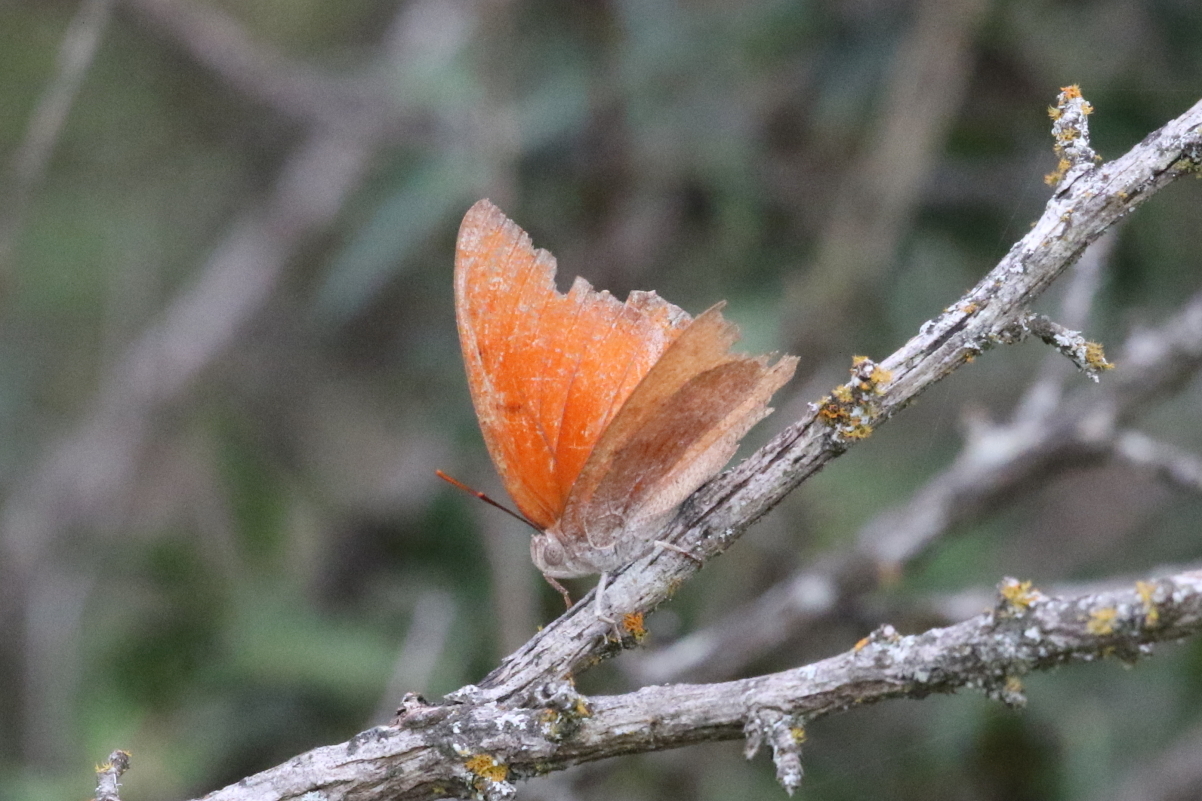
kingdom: Animalia
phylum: Arthropoda
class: Insecta
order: Lepidoptera
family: Nymphalidae
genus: Anaea
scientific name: Anaea andria
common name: Goatweed leafwing
